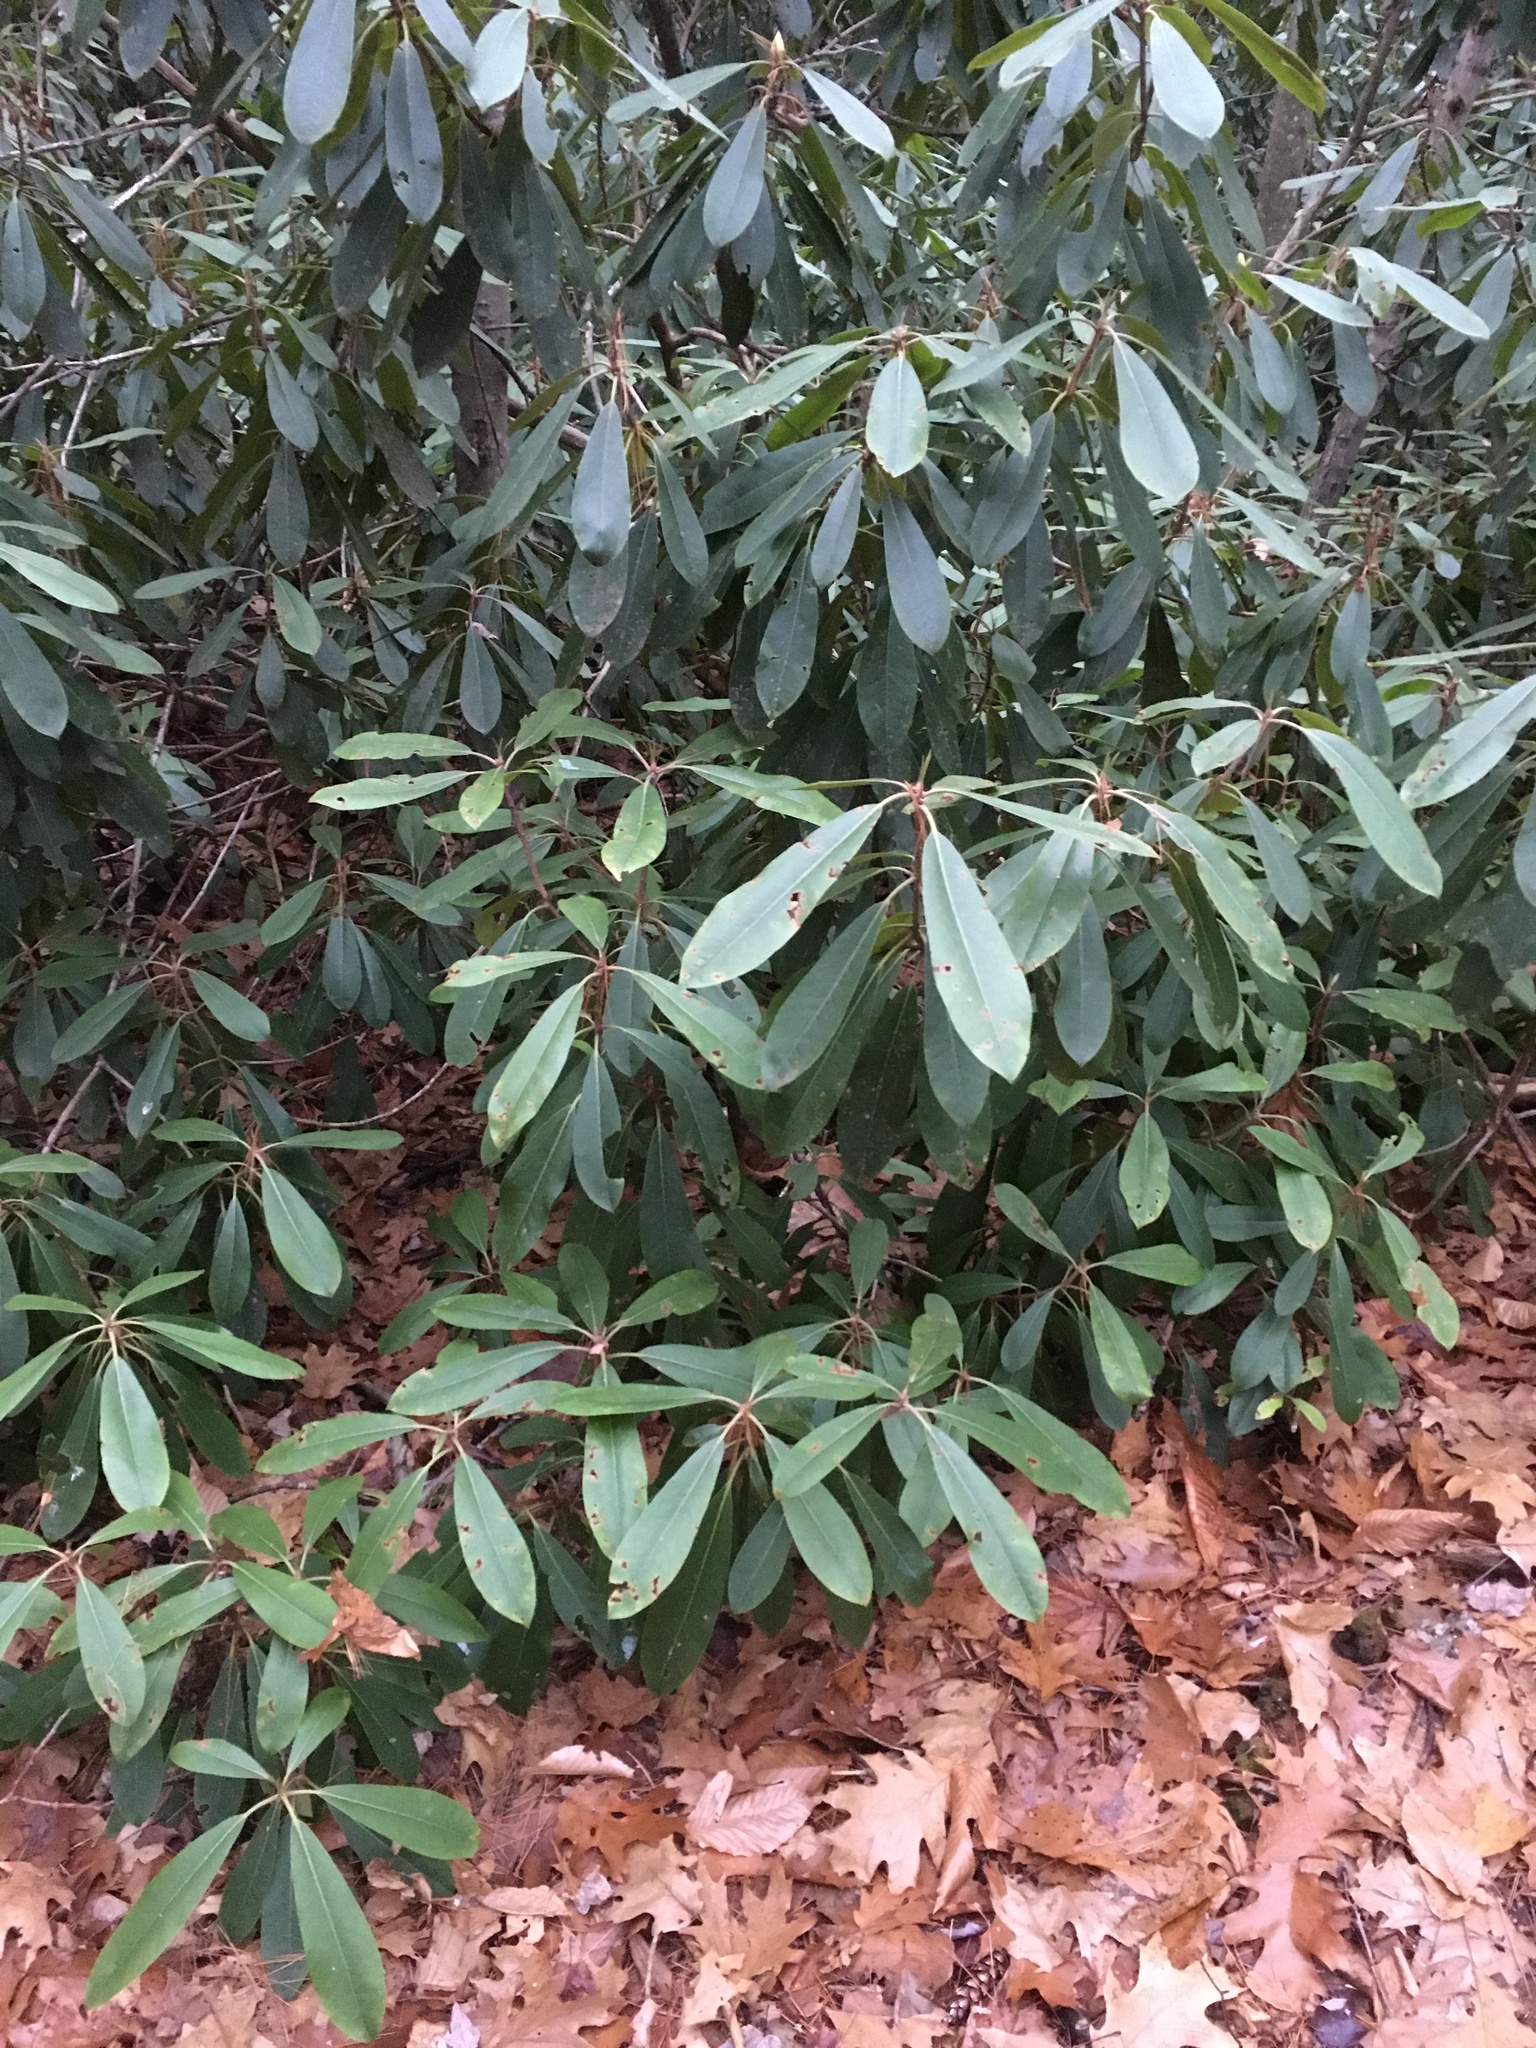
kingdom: Plantae
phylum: Tracheophyta
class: Magnoliopsida
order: Ericales
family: Ericaceae
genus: Rhododendron
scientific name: Rhododendron maximum
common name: Great rhododendron
